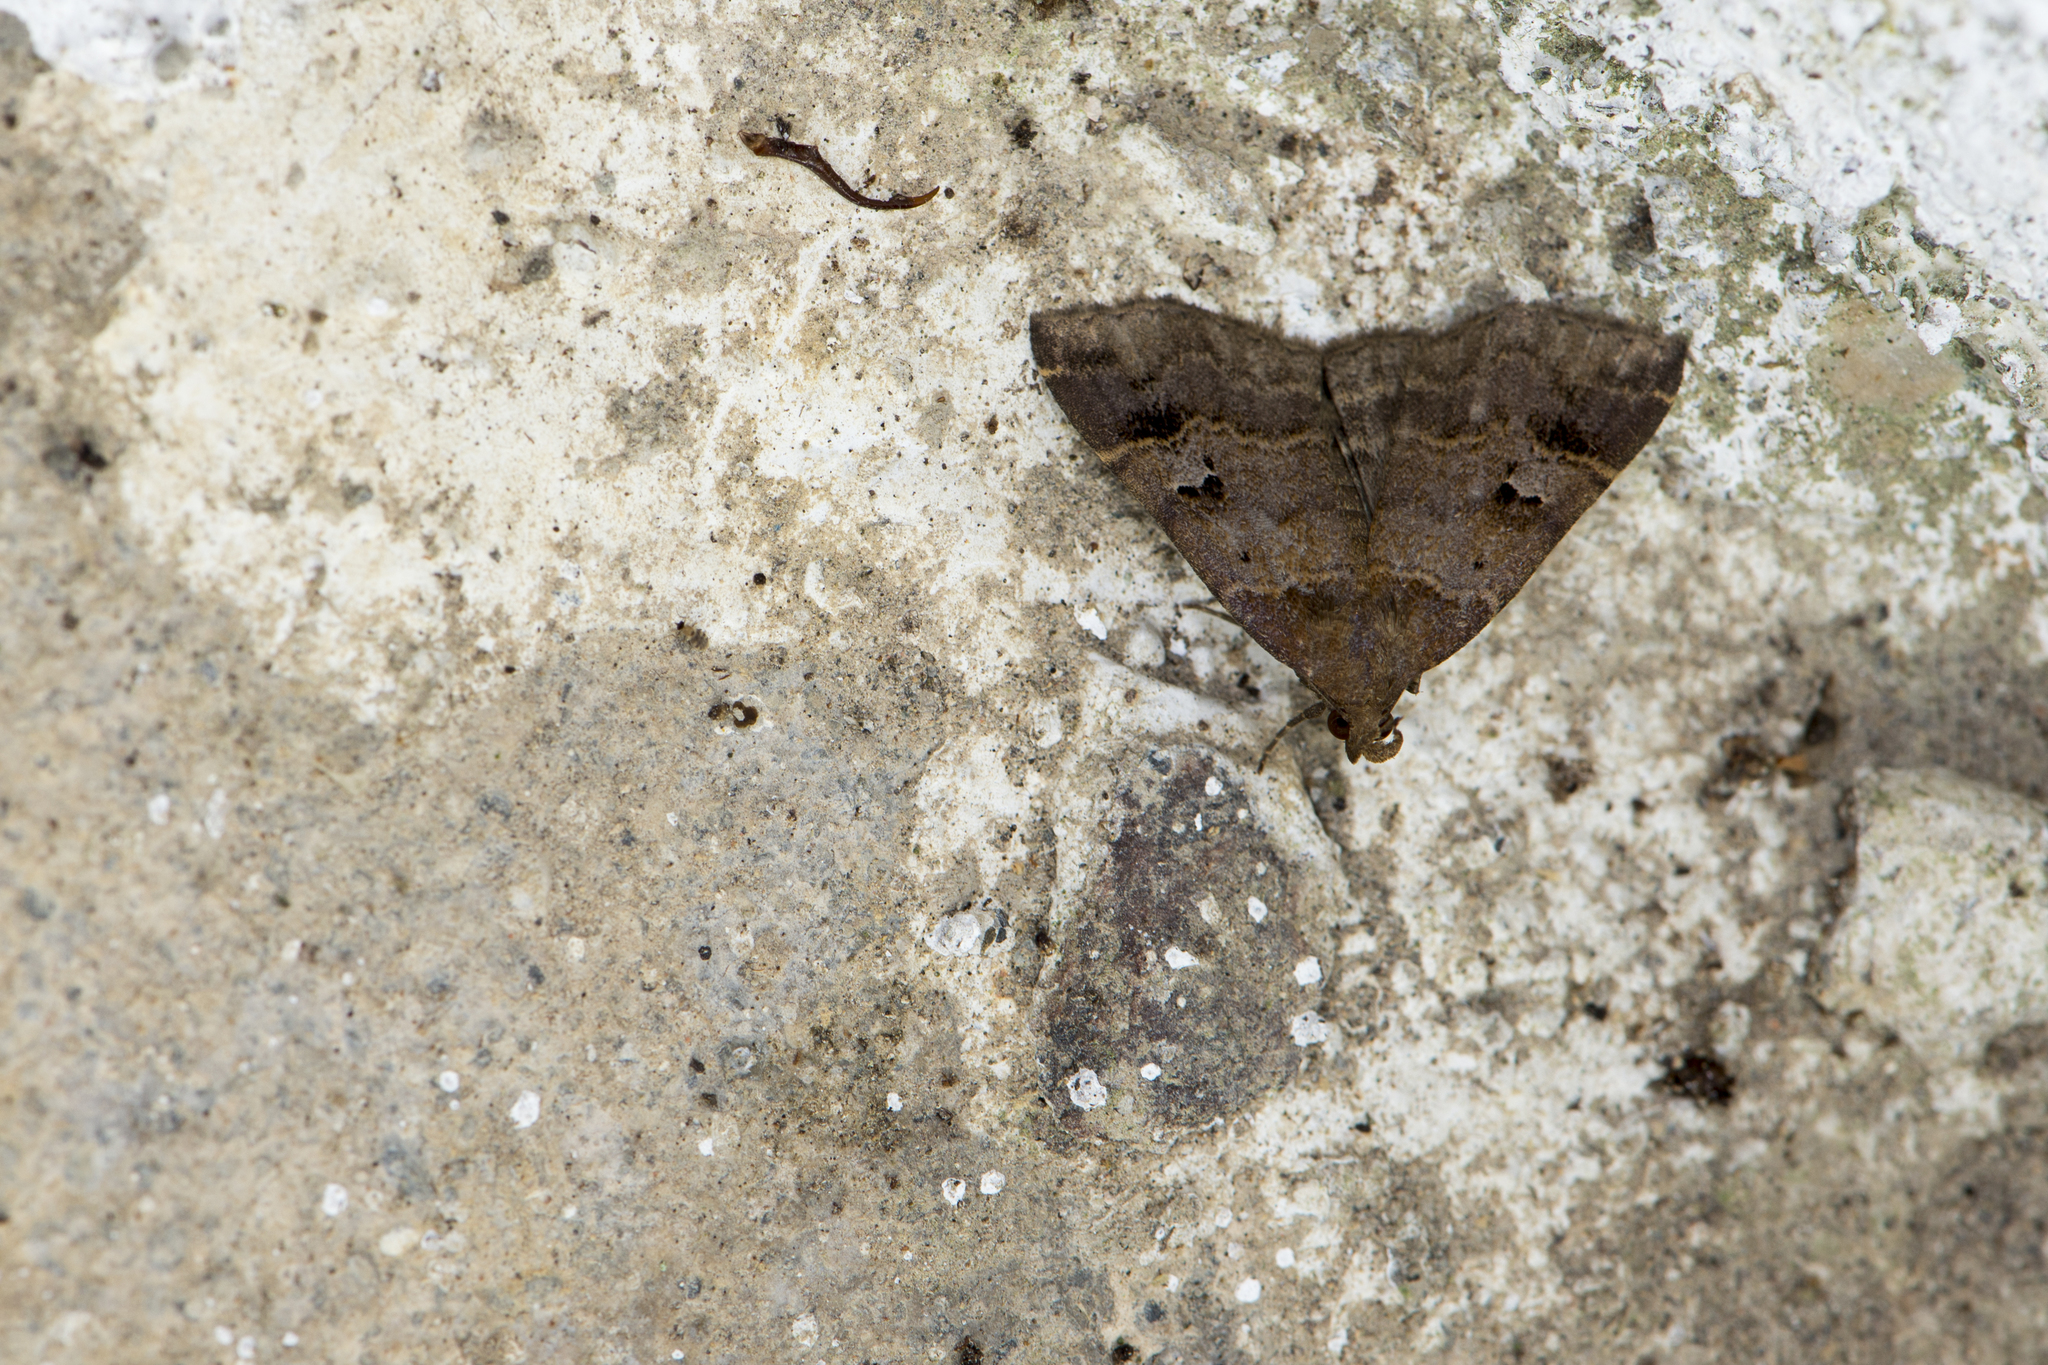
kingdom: Animalia
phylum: Arthropoda
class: Insecta
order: Lepidoptera
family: Erebidae
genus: Bertula
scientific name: Bertula hadenalis
